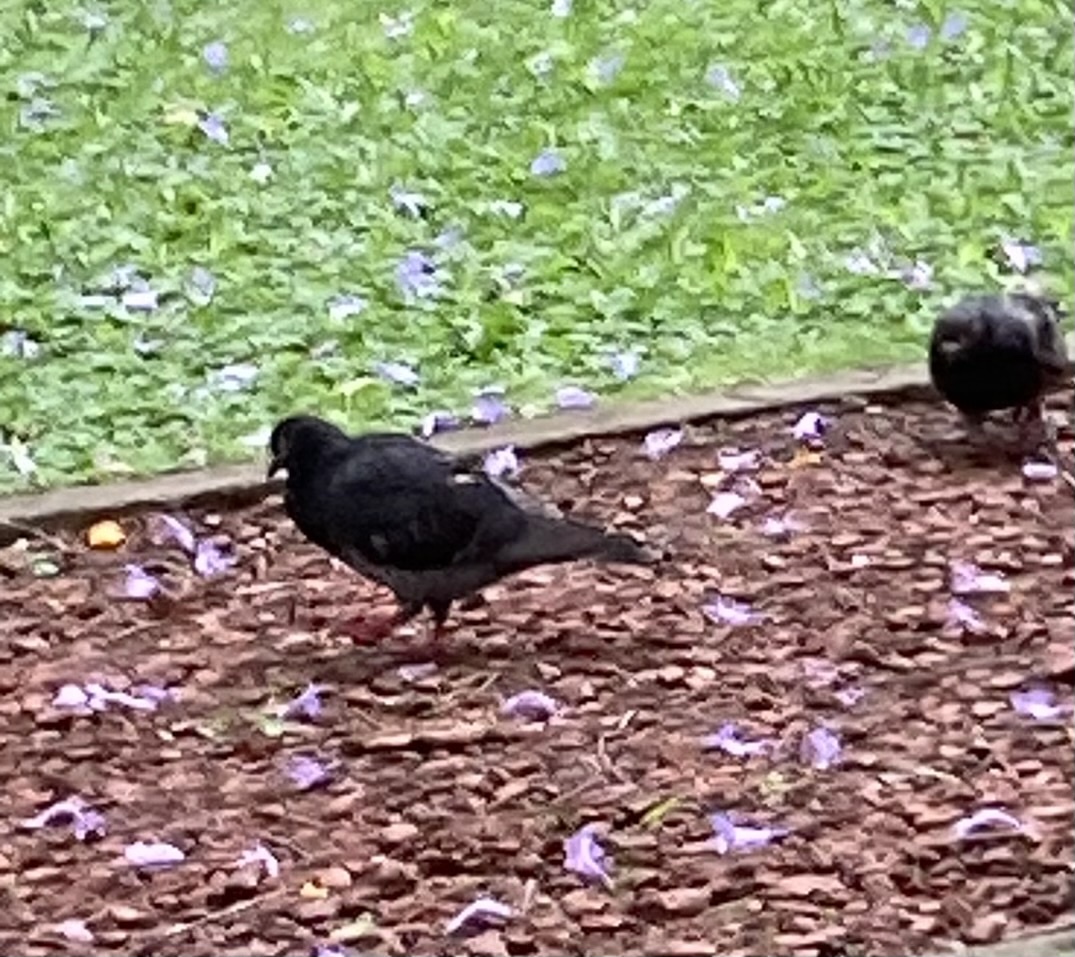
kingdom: Animalia
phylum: Chordata
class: Aves
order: Columbiformes
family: Columbidae
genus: Columba
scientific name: Columba livia
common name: Rock pigeon
